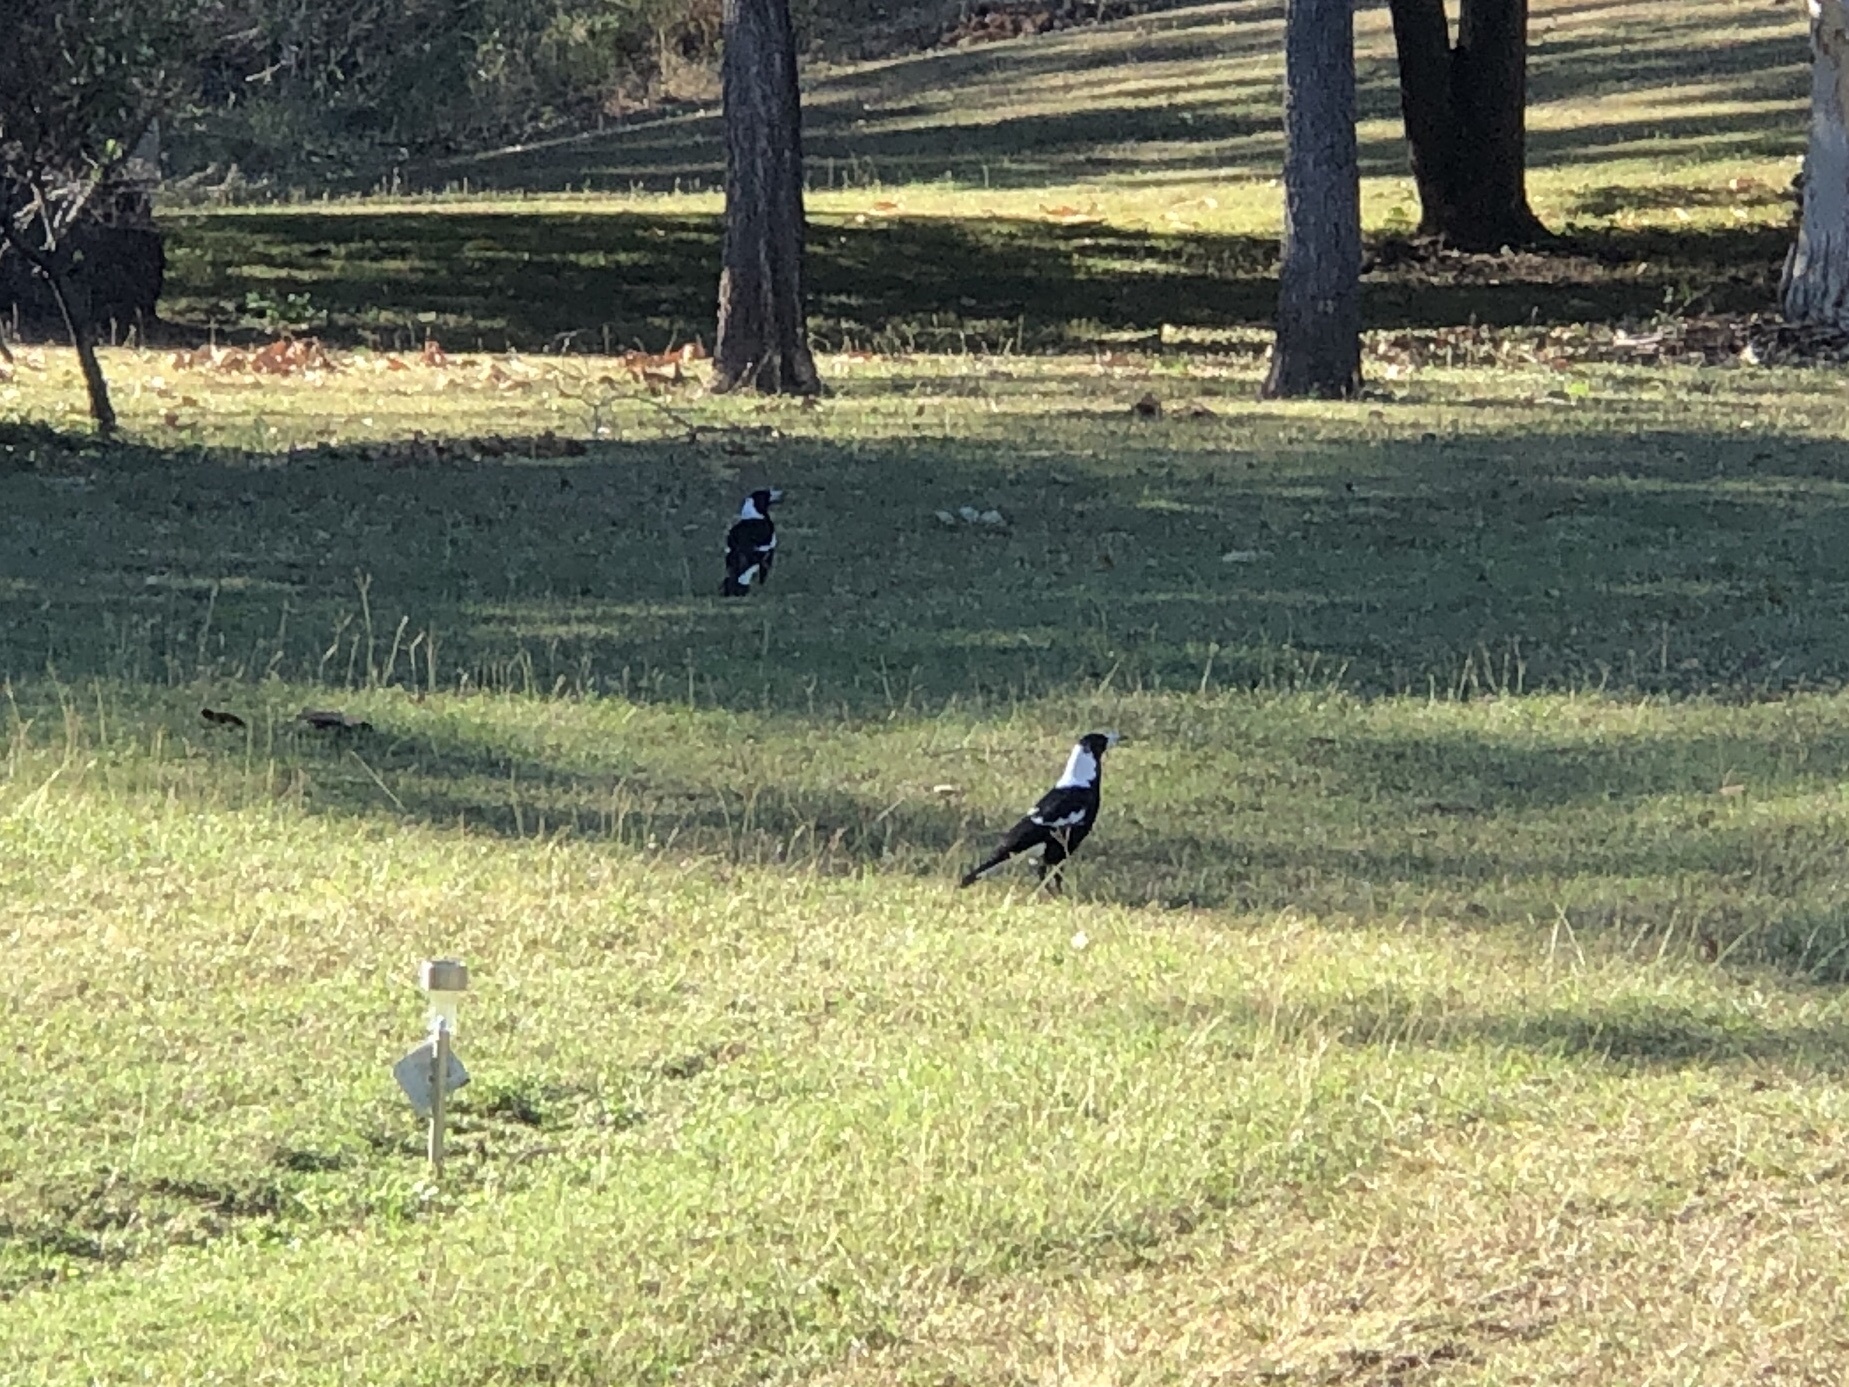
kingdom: Animalia
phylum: Chordata
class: Aves
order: Passeriformes
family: Cracticidae
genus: Gymnorhina
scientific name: Gymnorhina tibicen
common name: Australian magpie
